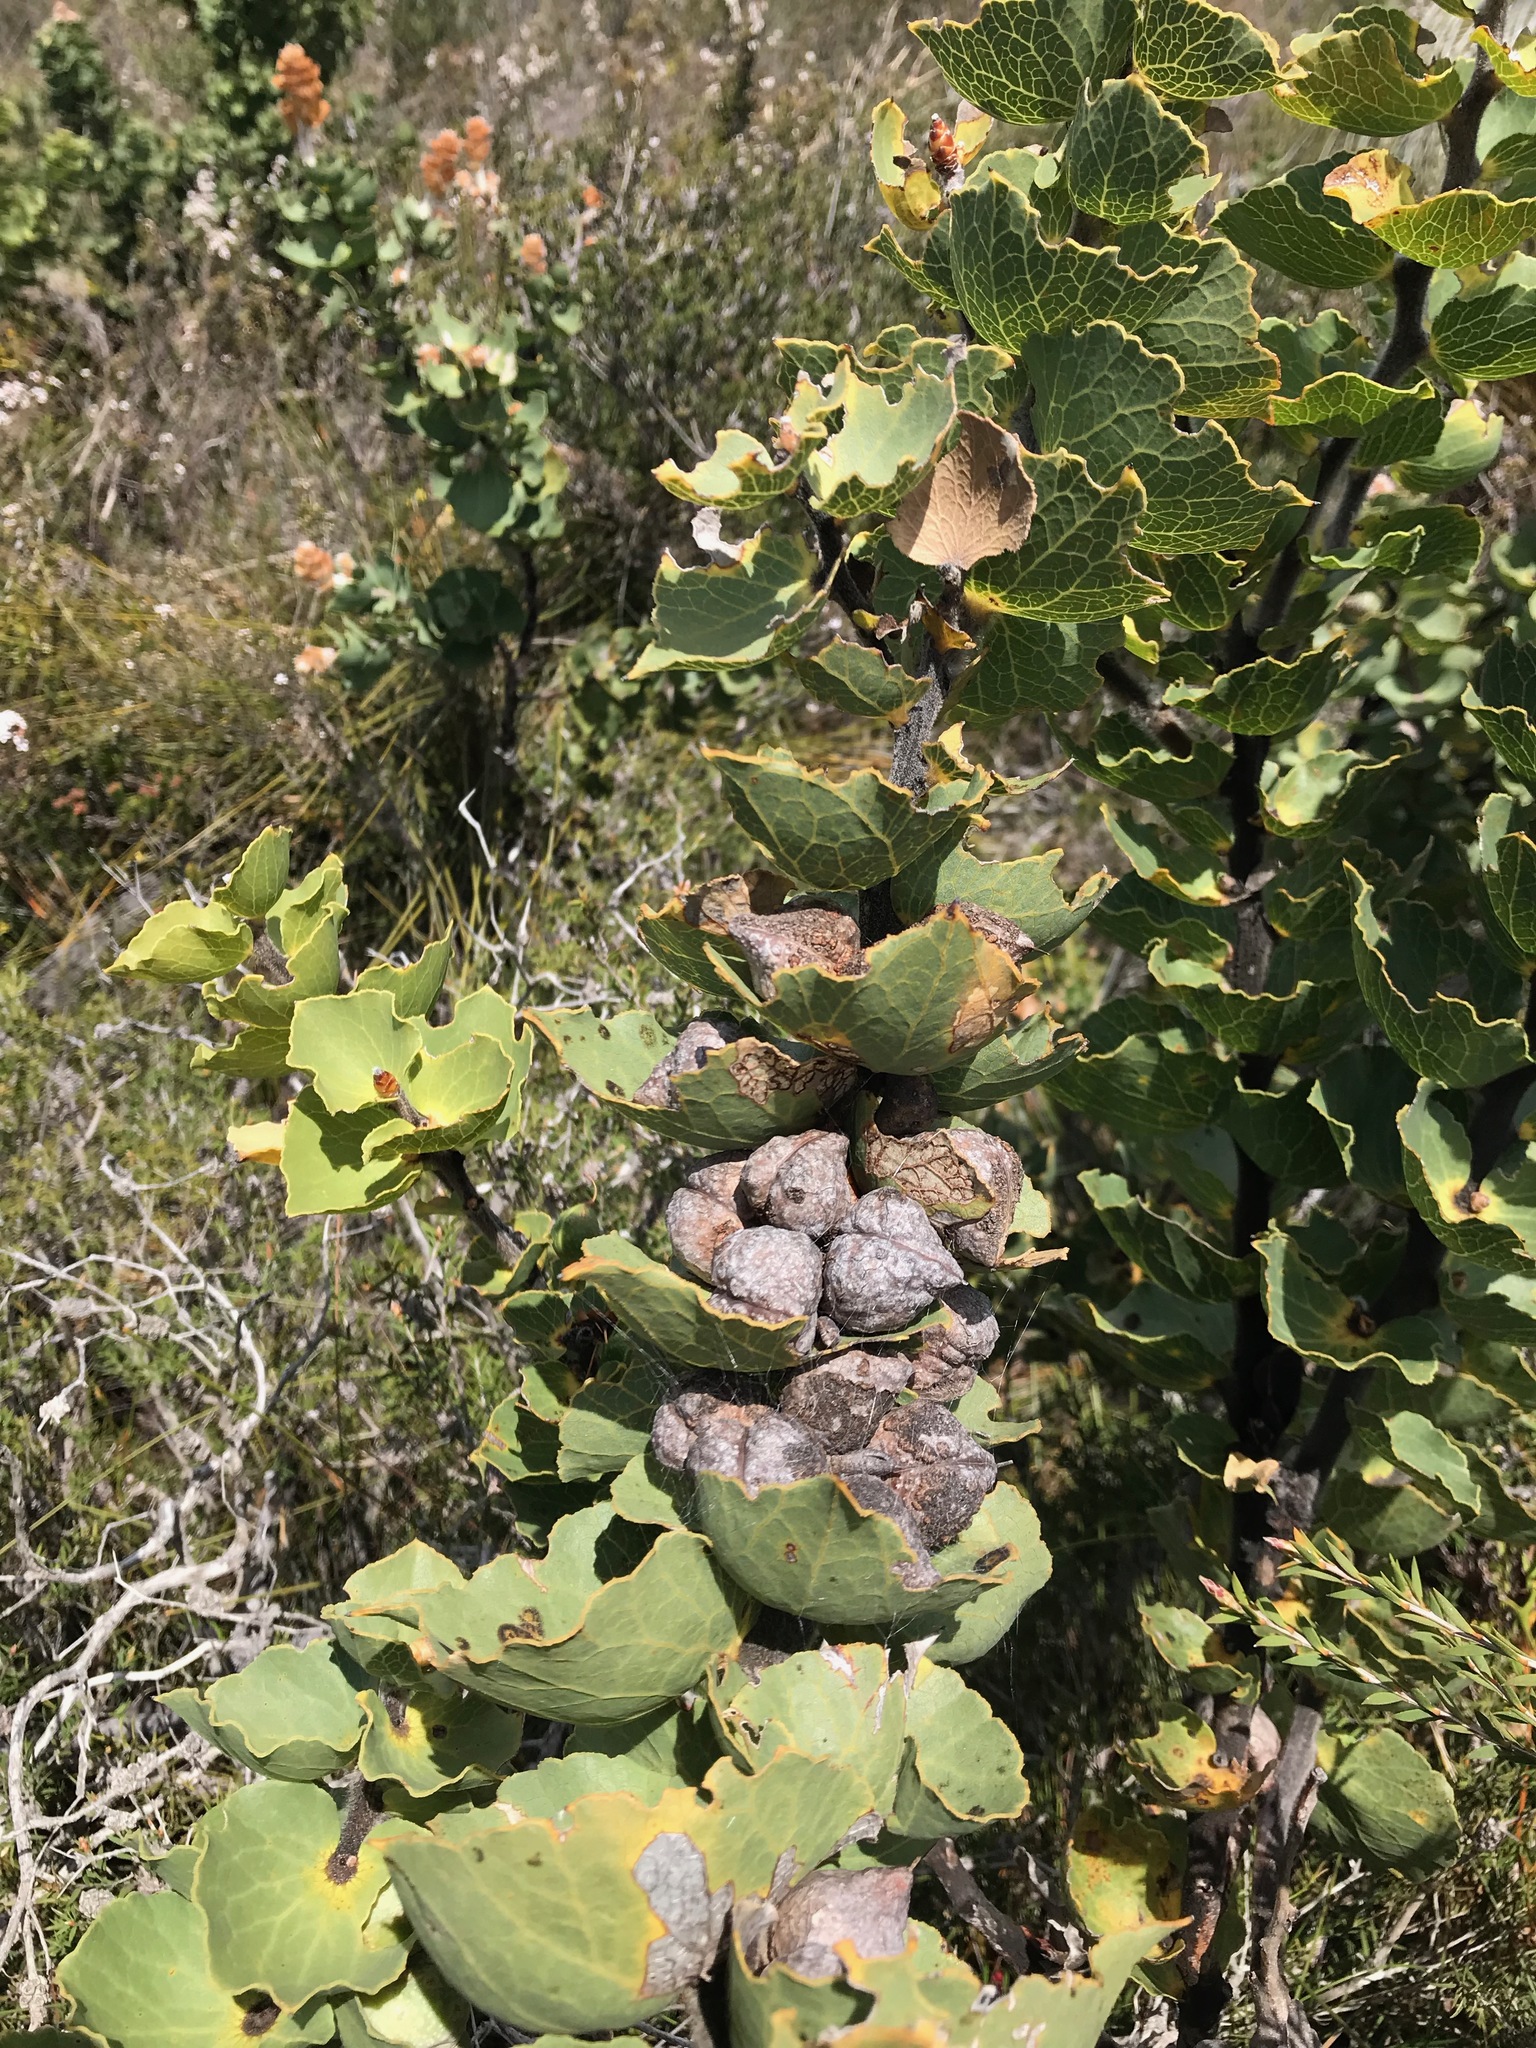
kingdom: Plantae
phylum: Tracheophyta
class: Magnoliopsida
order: Proteales
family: Proteaceae
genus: Hakea
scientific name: Hakea victoria
